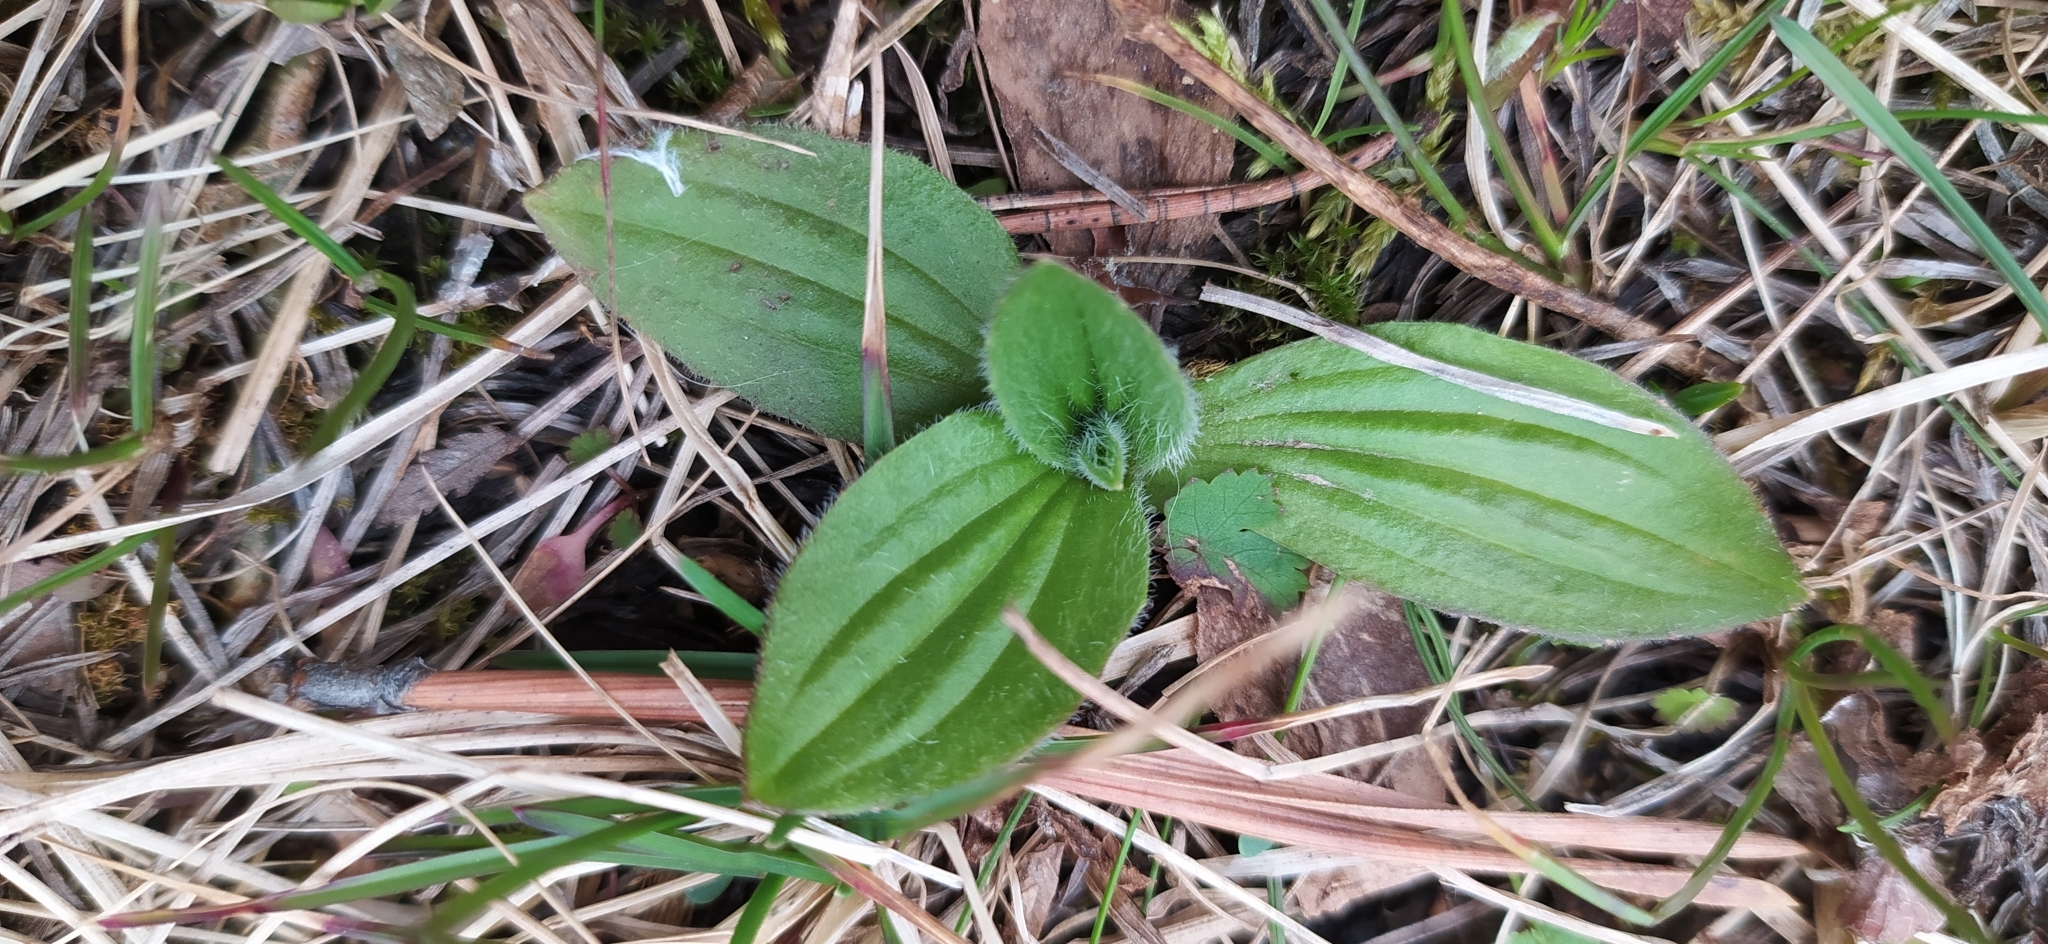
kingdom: Plantae
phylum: Tracheophyta
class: Magnoliopsida
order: Lamiales
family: Plantaginaceae
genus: Plantago
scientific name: Plantago media
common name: Hoary plantain
